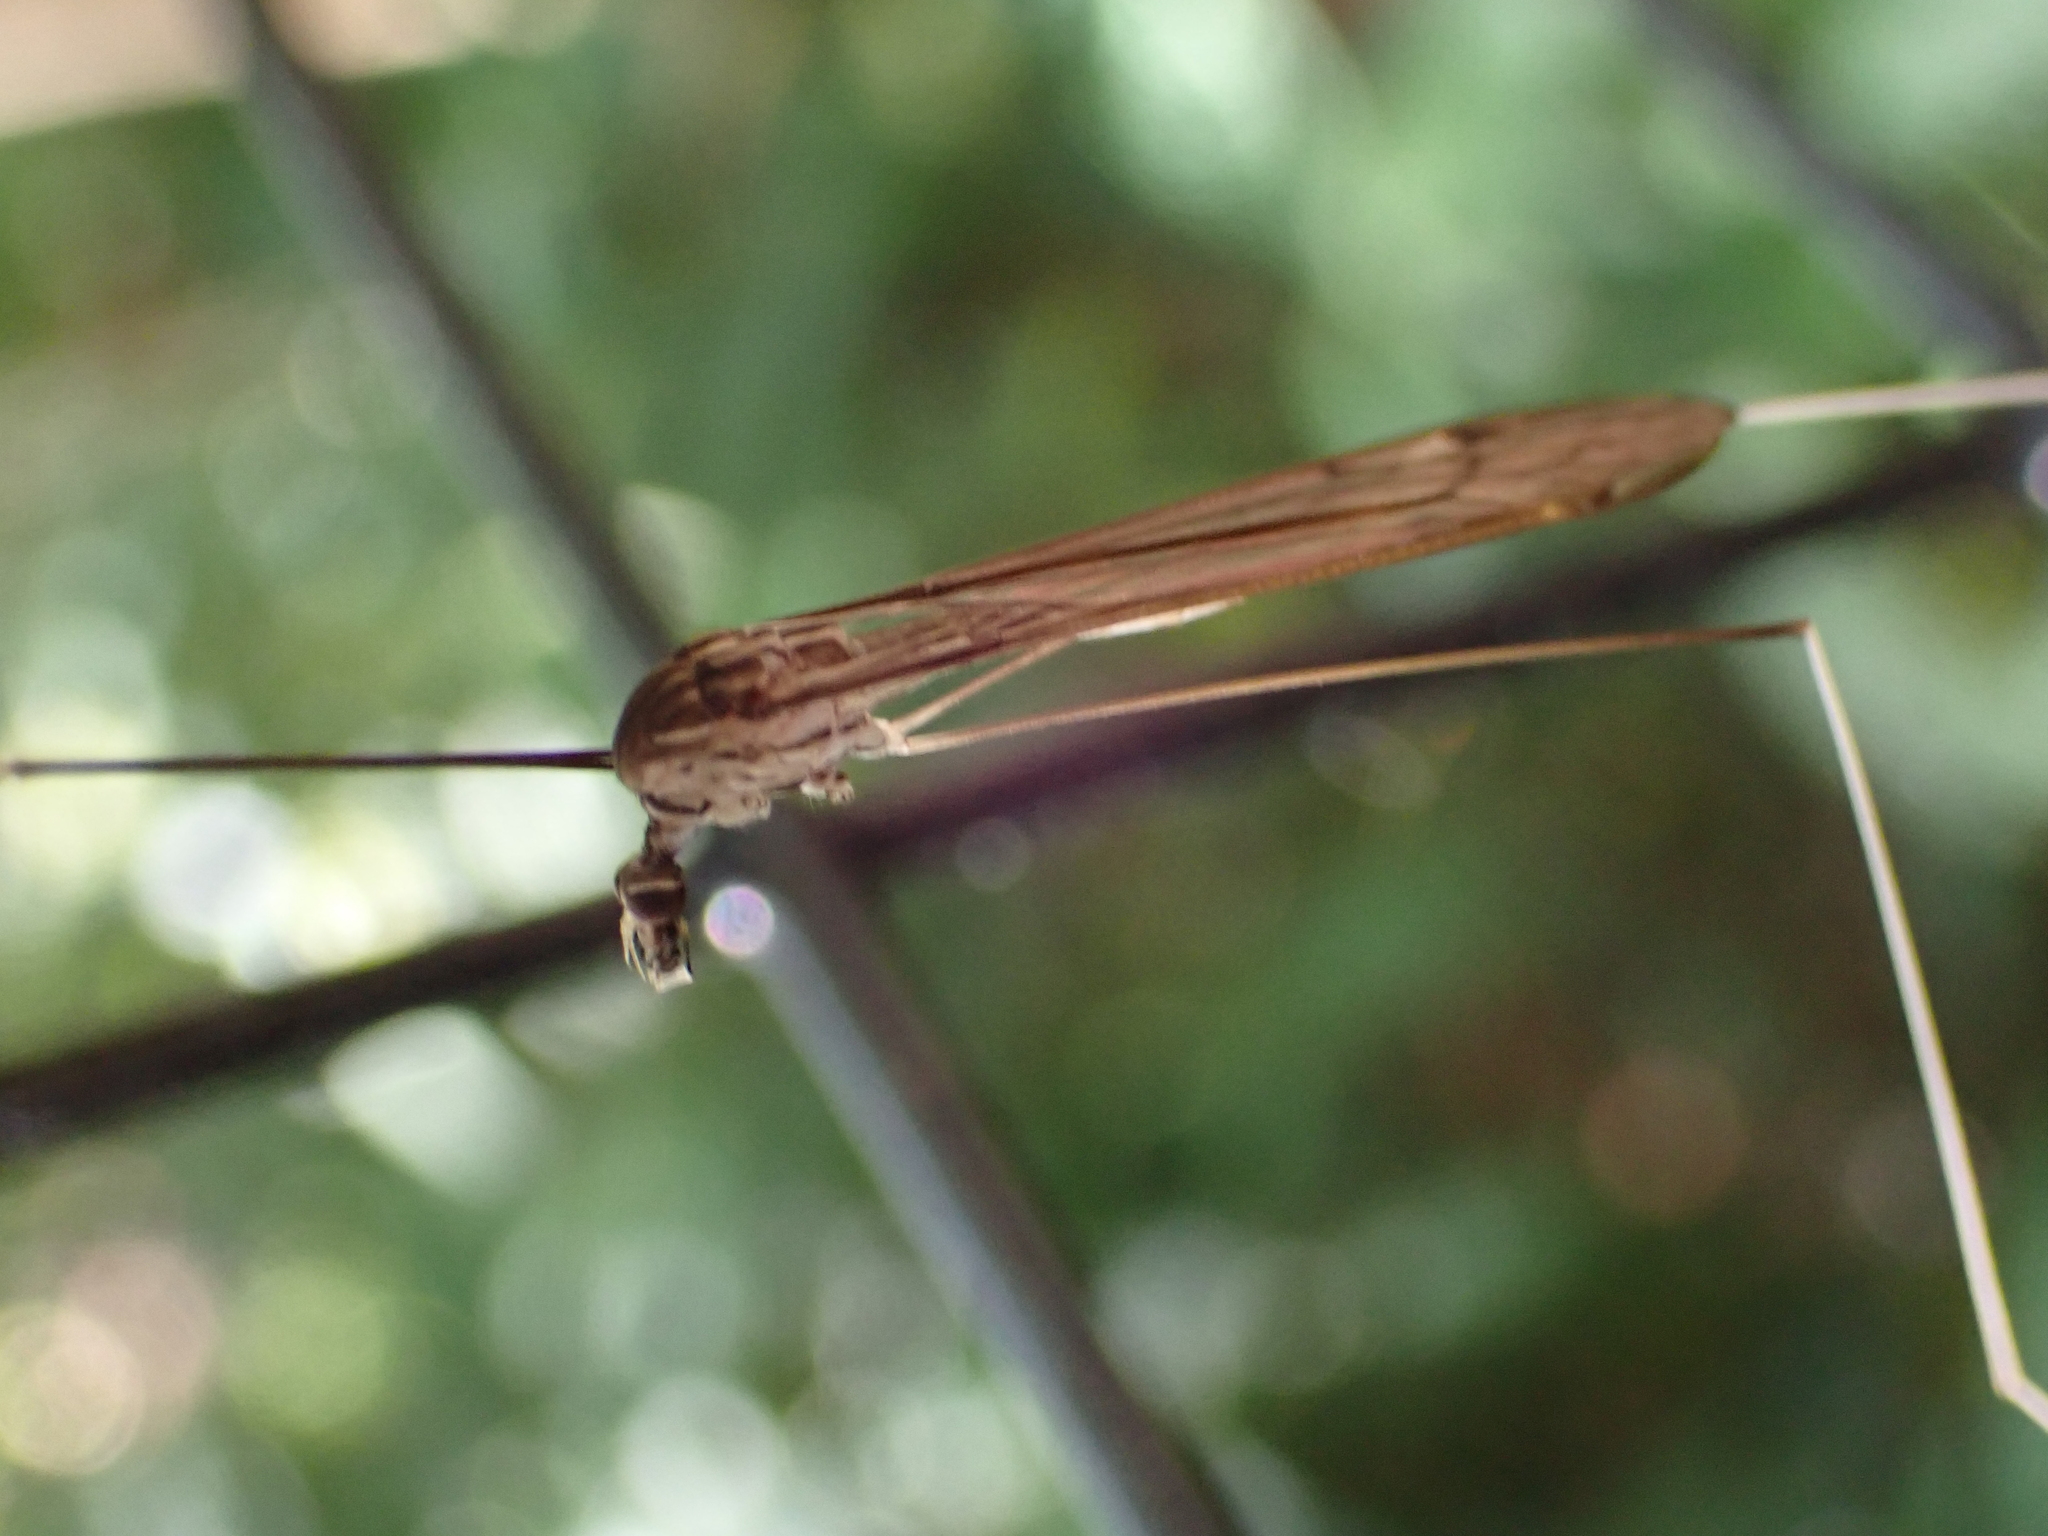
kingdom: Animalia
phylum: Arthropoda
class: Insecta
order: Diptera
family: Tipulidae
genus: Brachypremna
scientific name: Brachypremna dispellens
